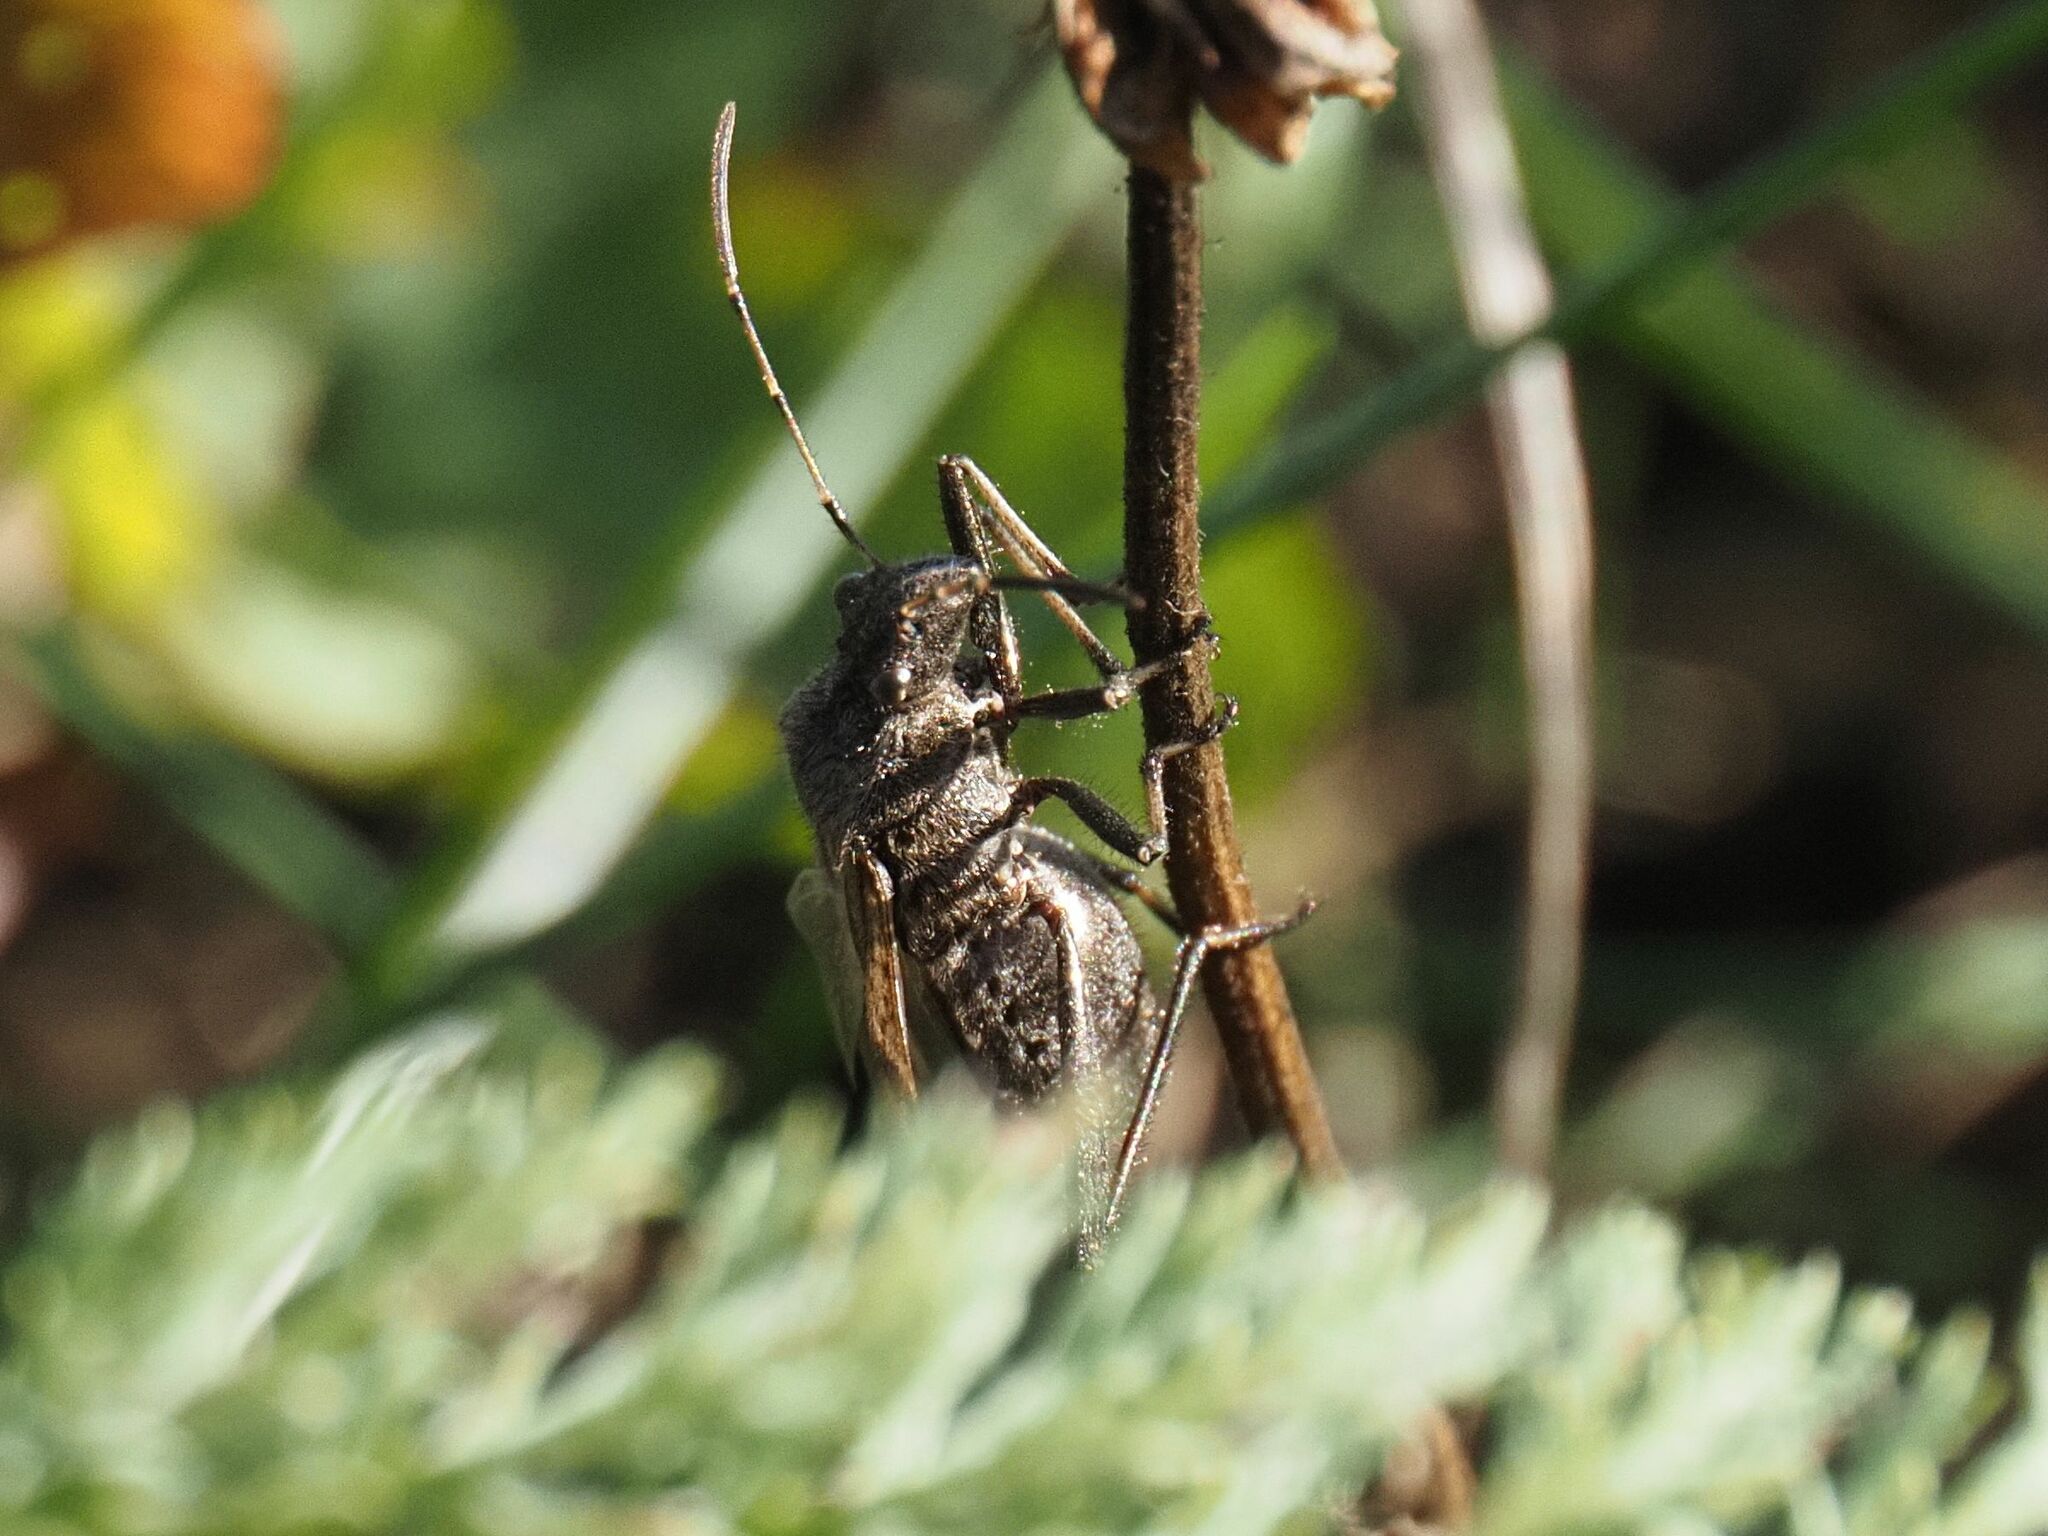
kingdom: Animalia
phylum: Arthropoda
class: Insecta
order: Hemiptera
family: Alydidae
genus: Alydus
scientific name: Alydus calcaratus
